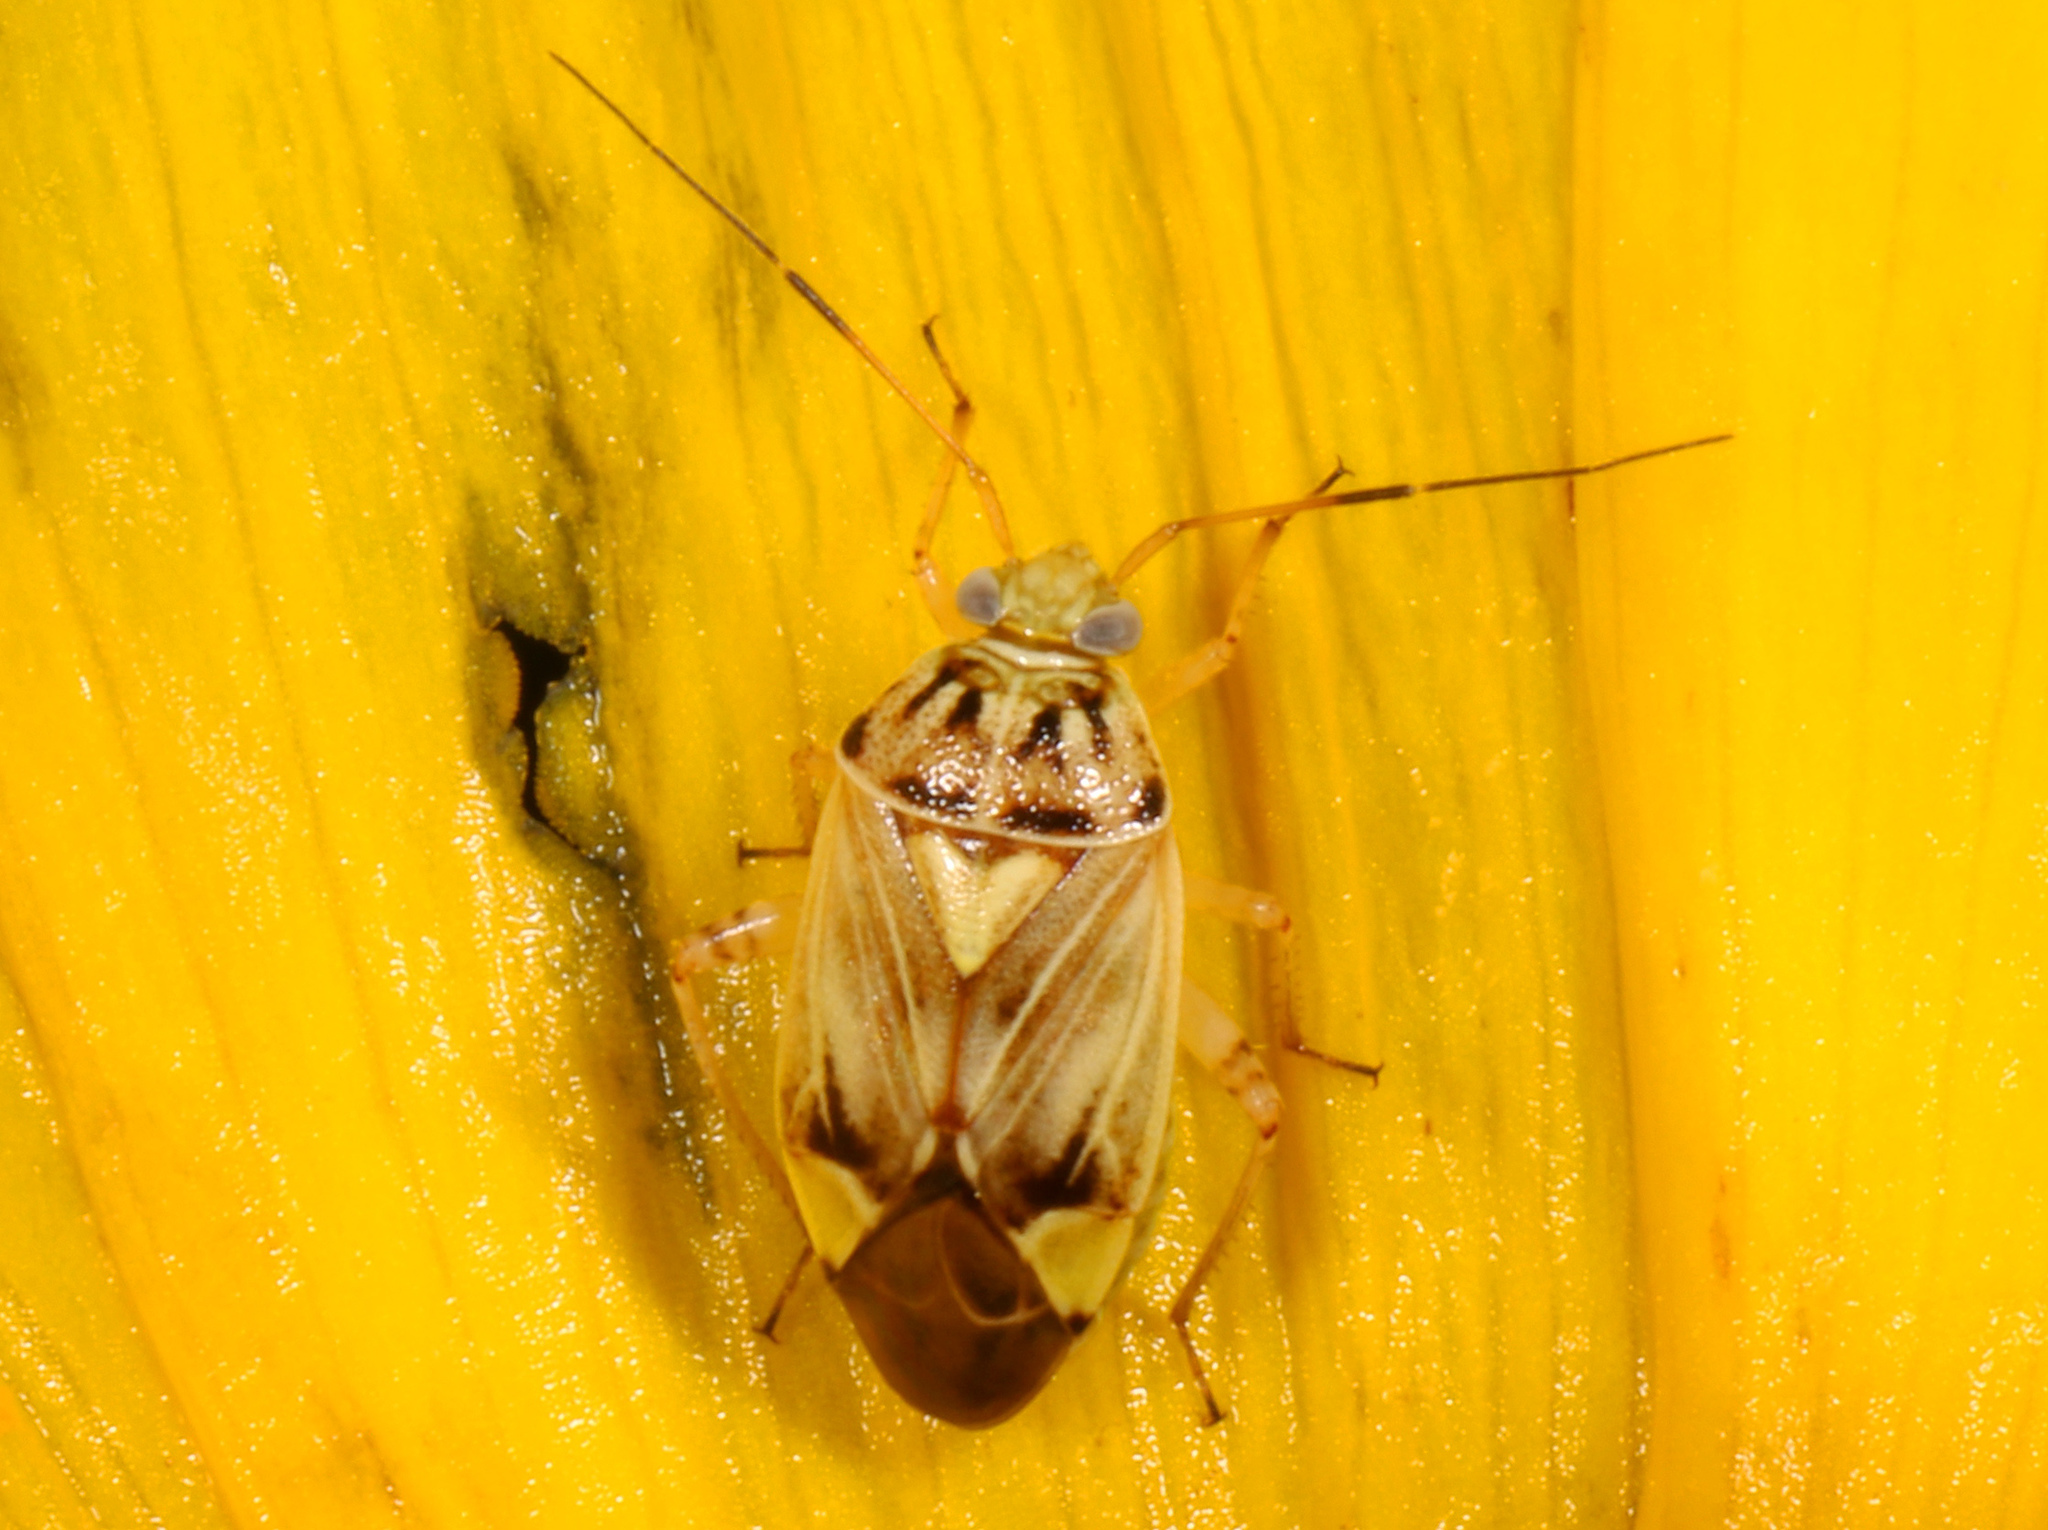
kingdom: Animalia
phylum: Arthropoda
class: Insecta
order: Hemiptera
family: Miridae
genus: Lygus
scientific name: Lygus
